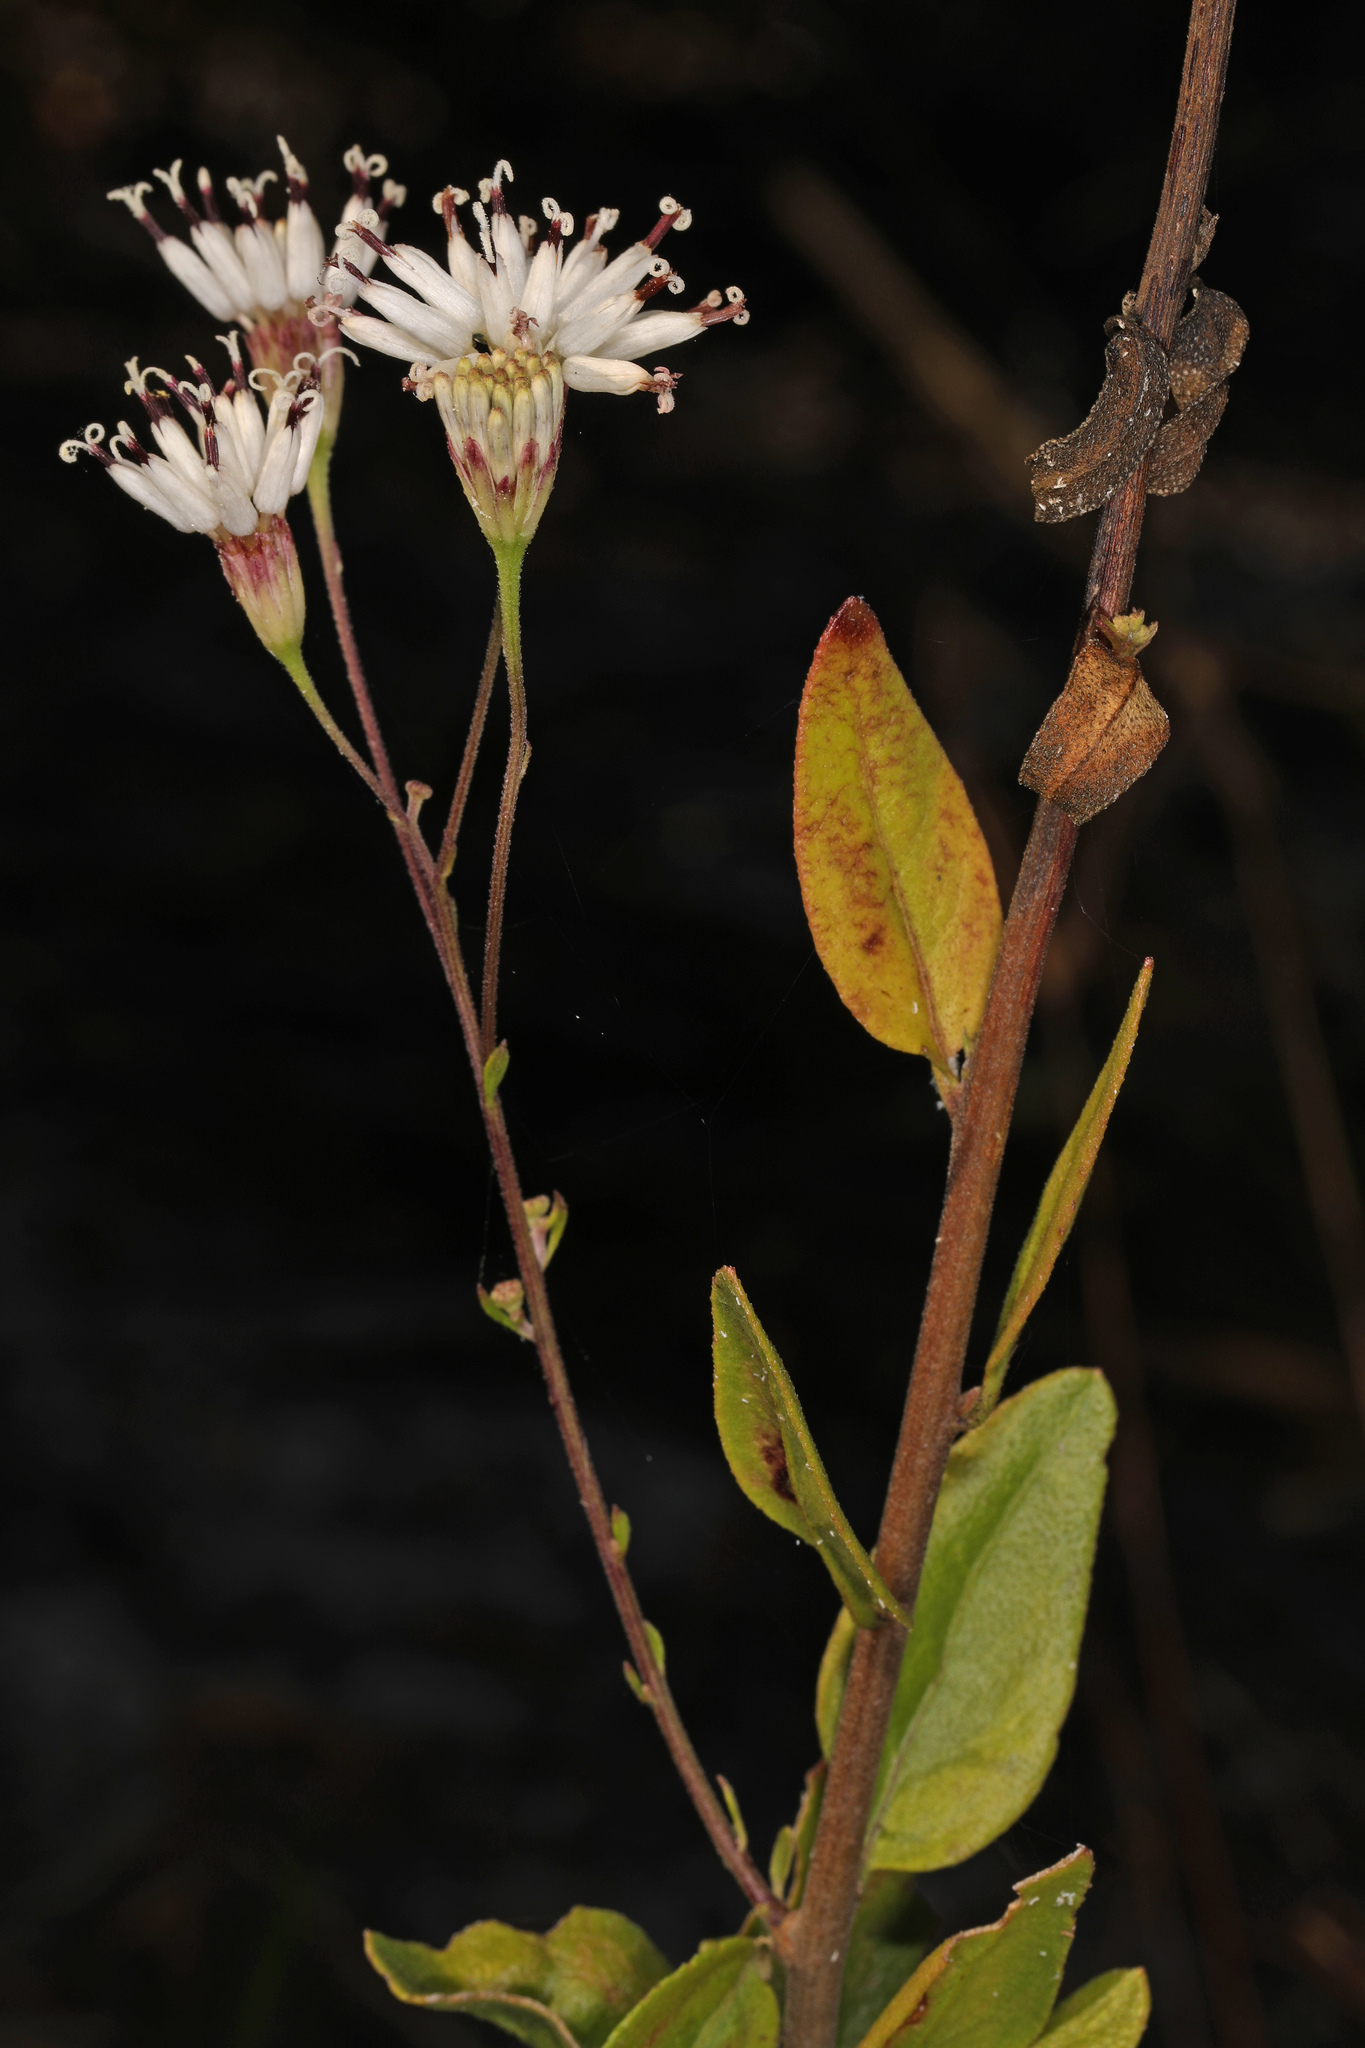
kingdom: Plantae
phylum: Tracheophyta
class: Magnoliopsida
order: Asterales
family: Asteraceae
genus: Palafoxia
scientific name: Palafoxia feayi
